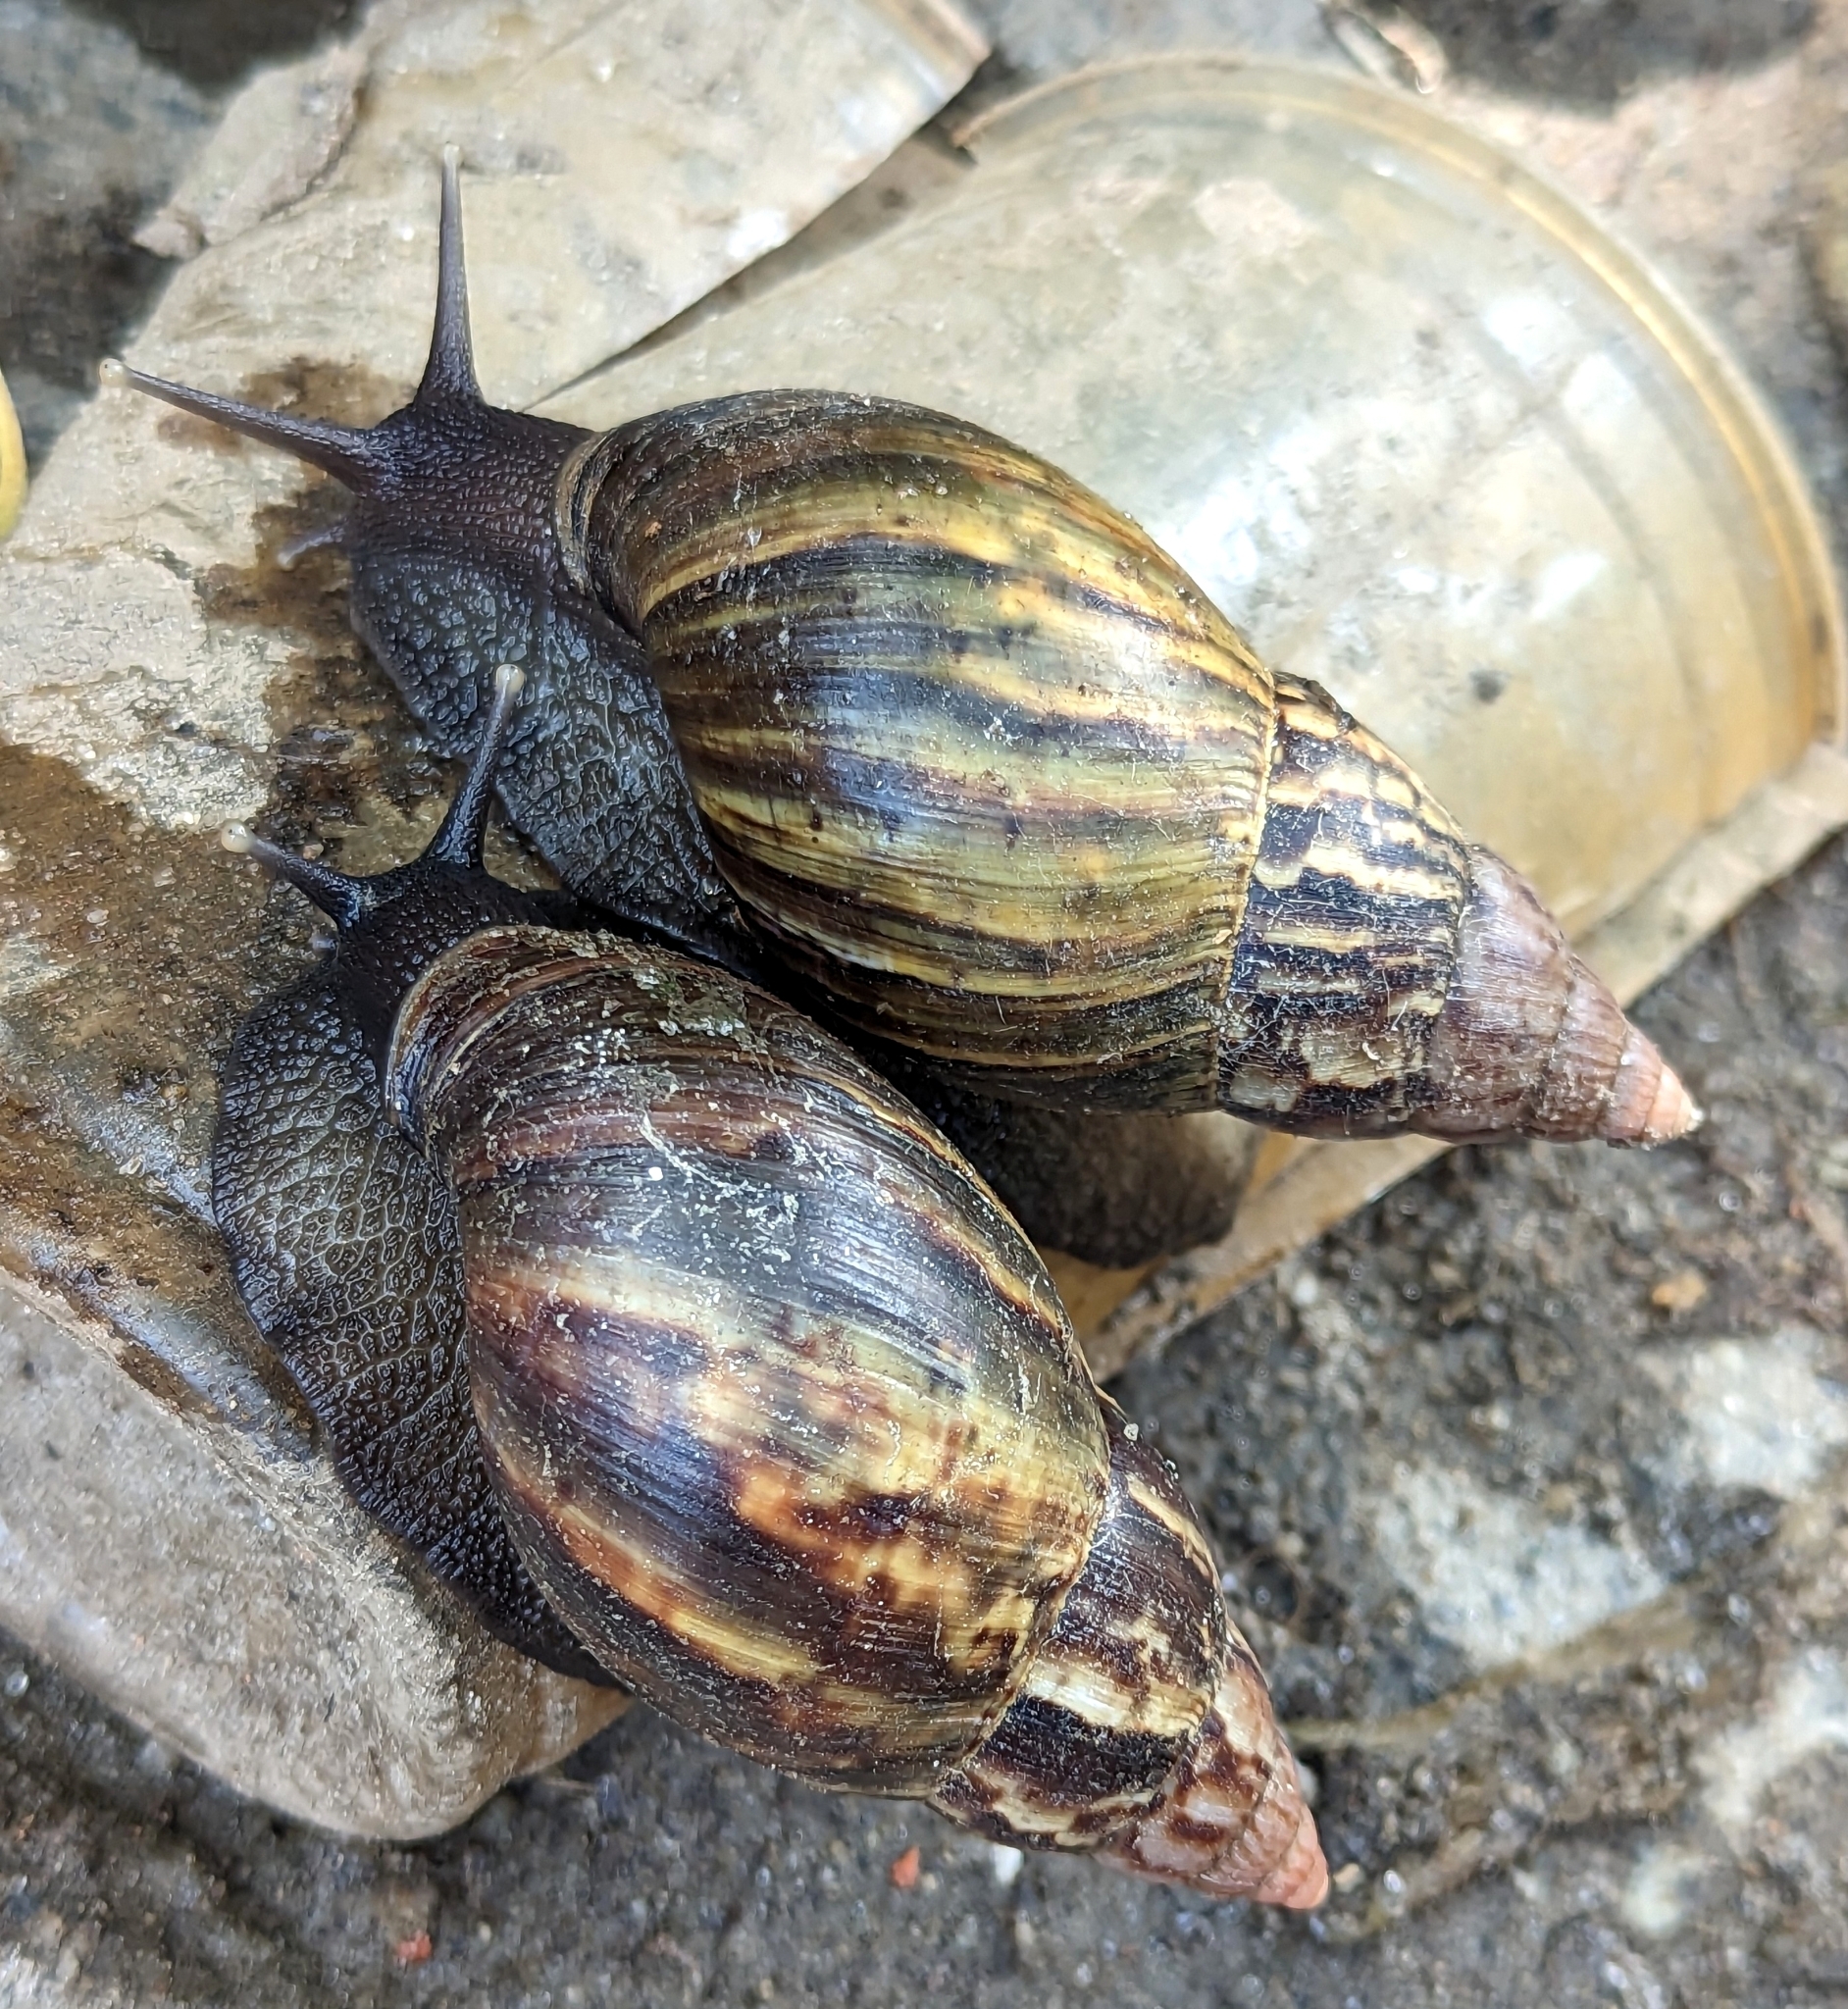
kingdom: Animalia
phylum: Mollusca
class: Gastropoda
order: Stylommatophora
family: Achatinidae
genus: Lissachatina
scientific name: Lissachatina fulica
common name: Giant african snail
